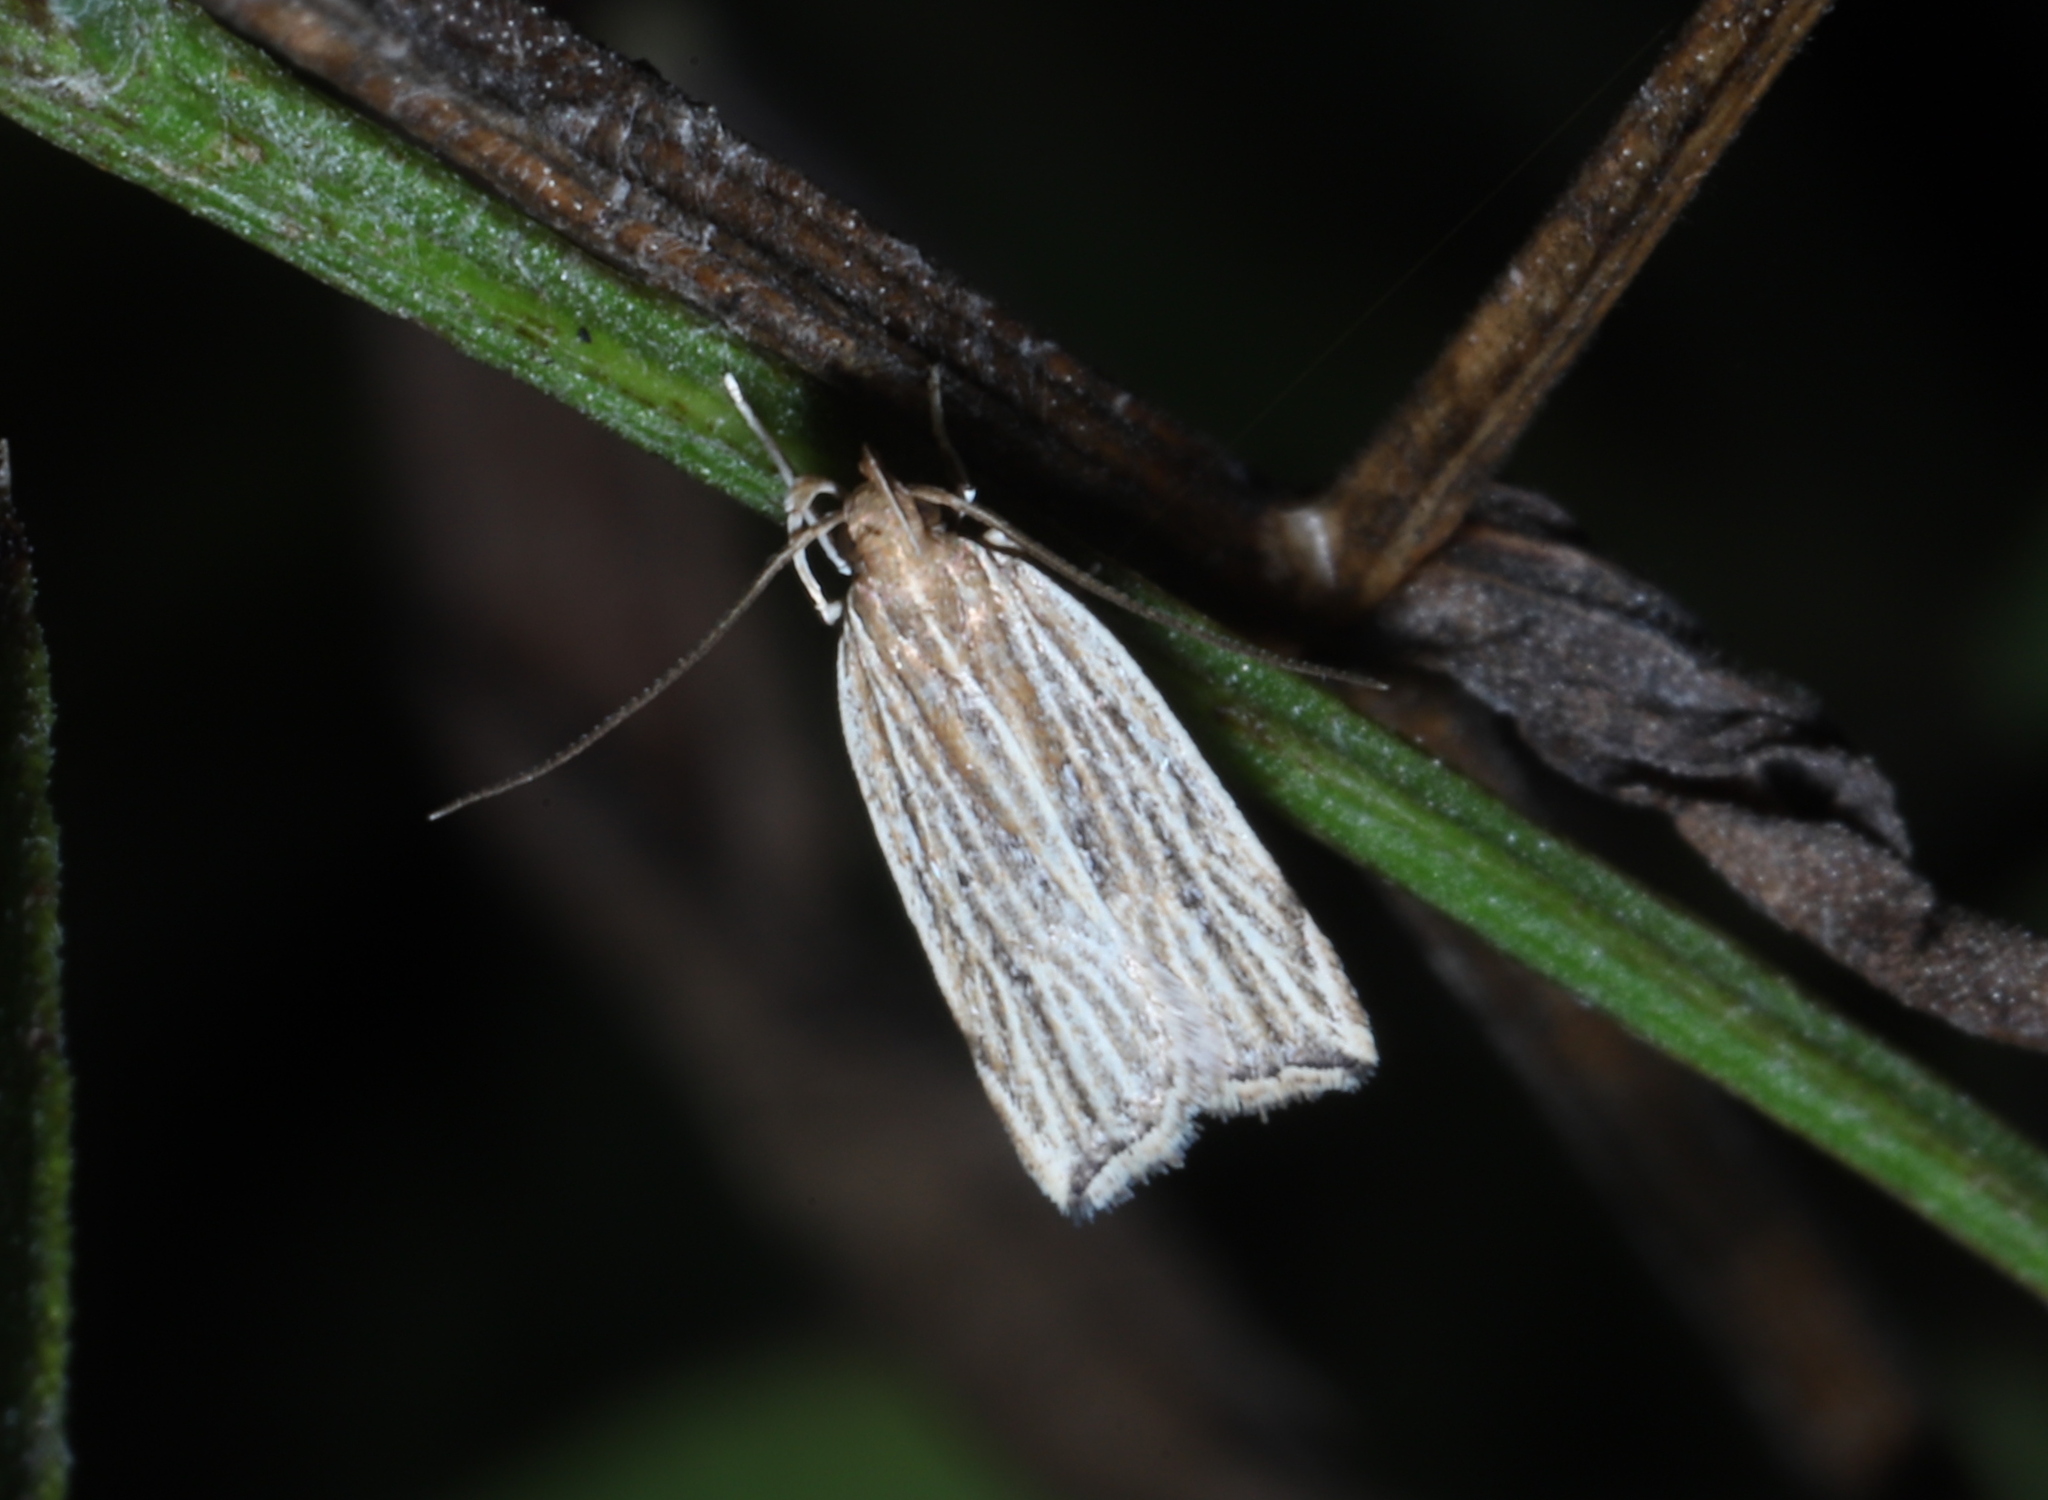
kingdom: Animalia
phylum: Arthropoda
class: Insecta
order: Lepidoptera
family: Gelechiidae
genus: Helcystogramma
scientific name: Helcystogramma hystricella
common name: Lanceolate moth
